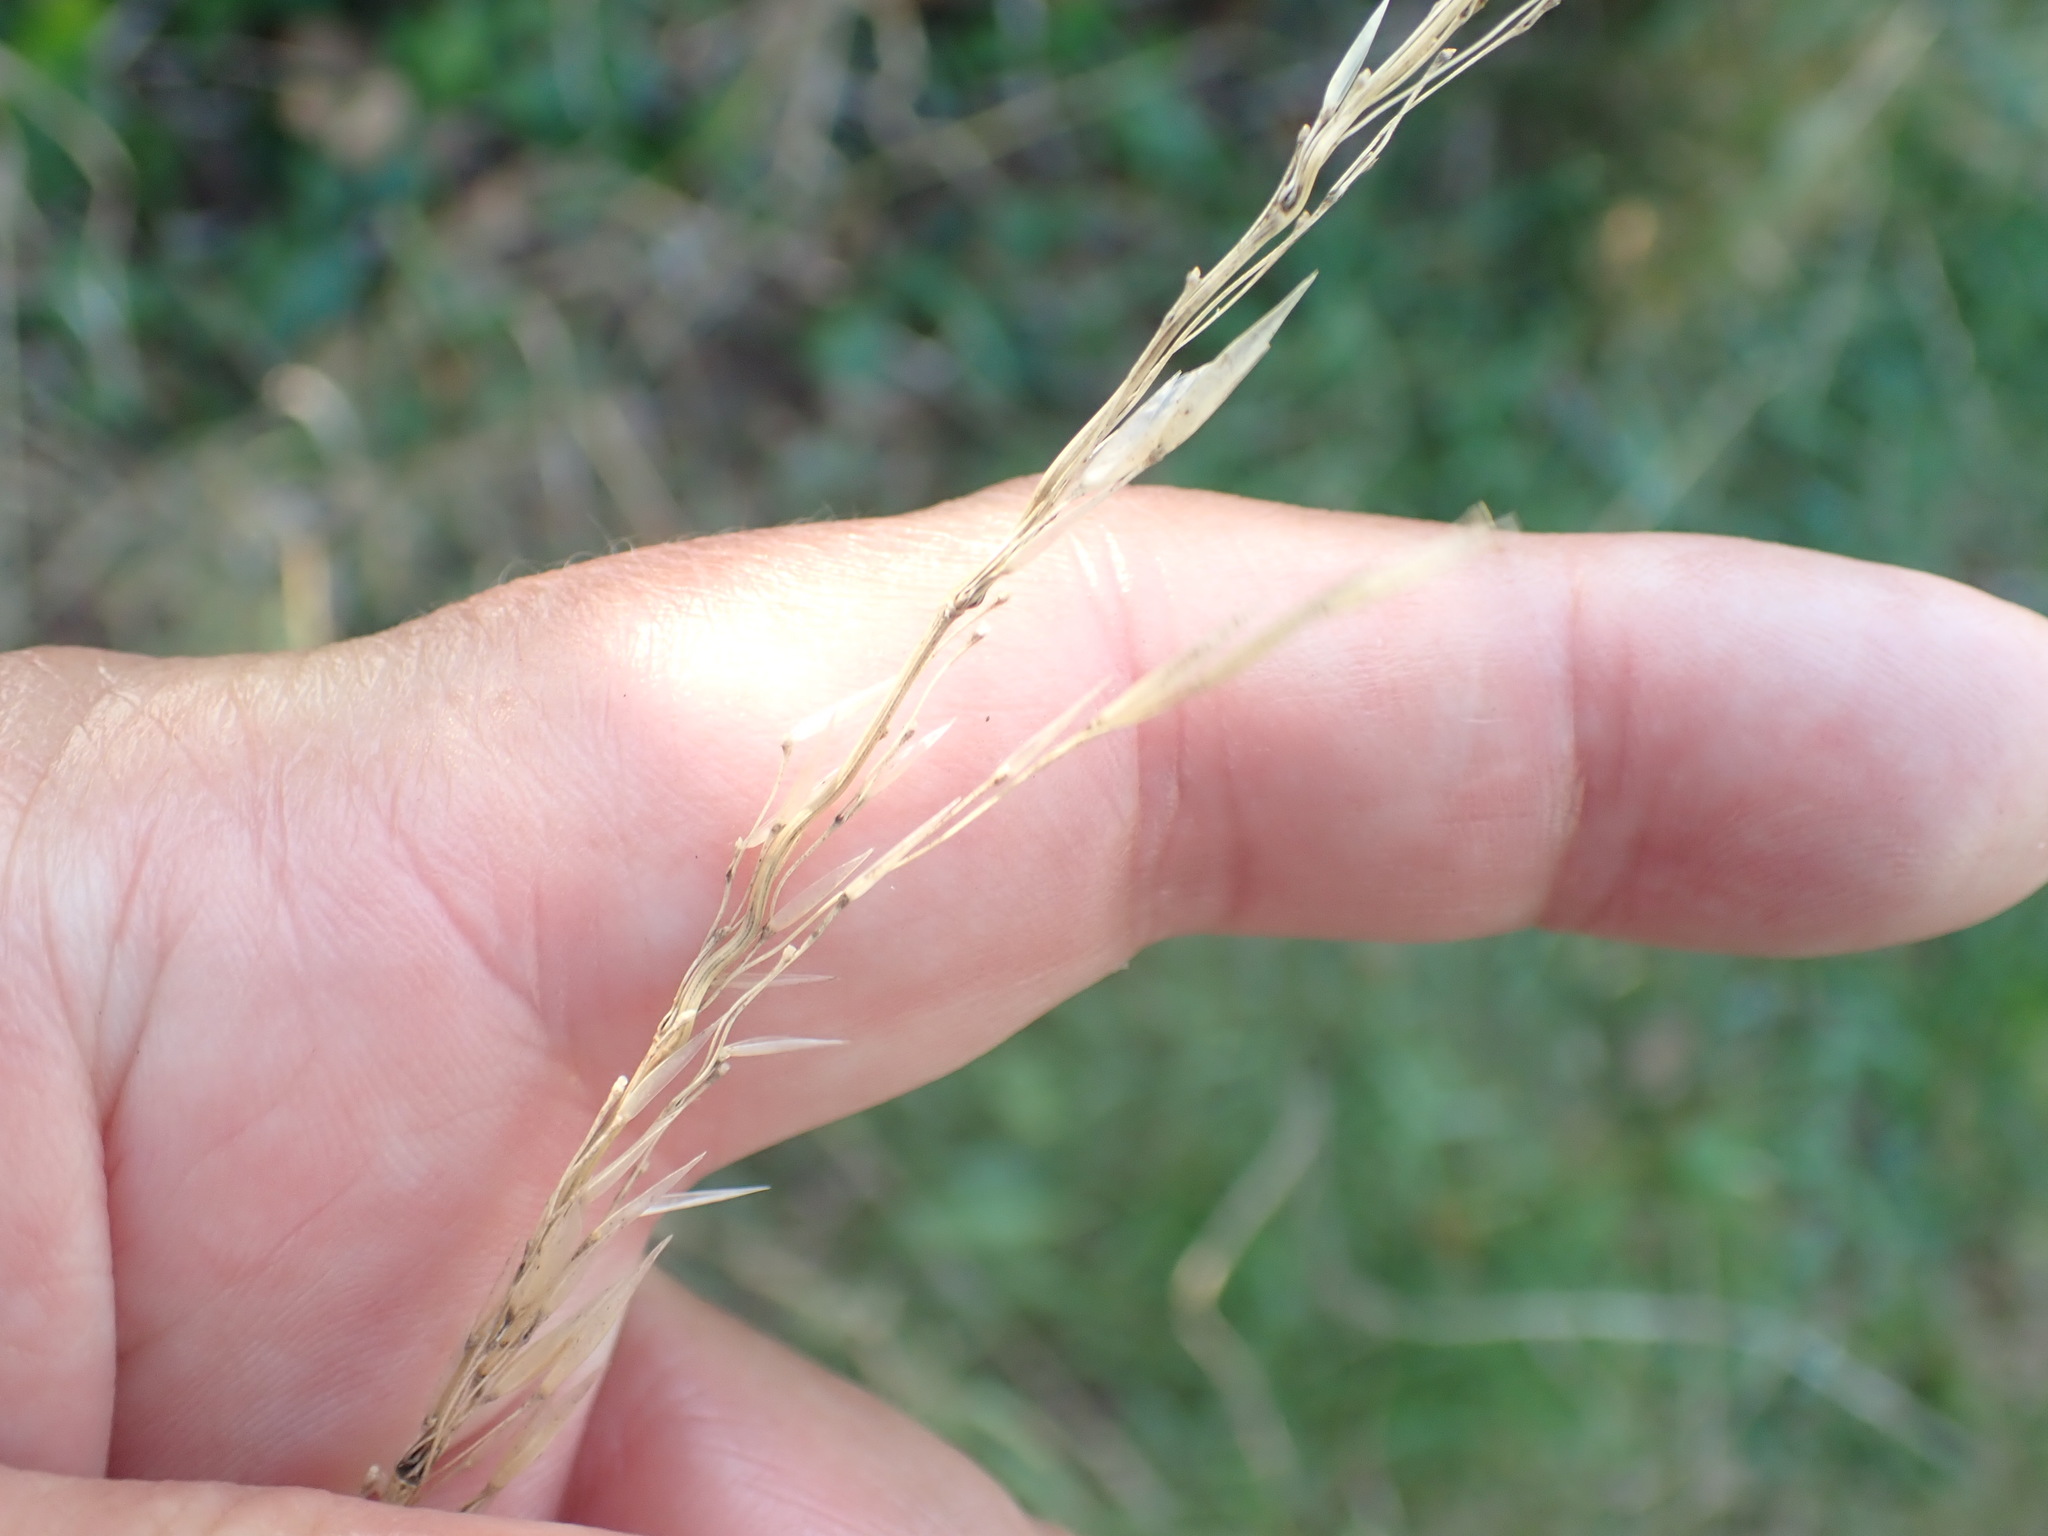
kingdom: Plantae
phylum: Tracheophyta
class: Liliopsida
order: Poales
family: Poaceae
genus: Arrhenatherum
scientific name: Arrhenatherum elatius
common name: Tall oatgrass
